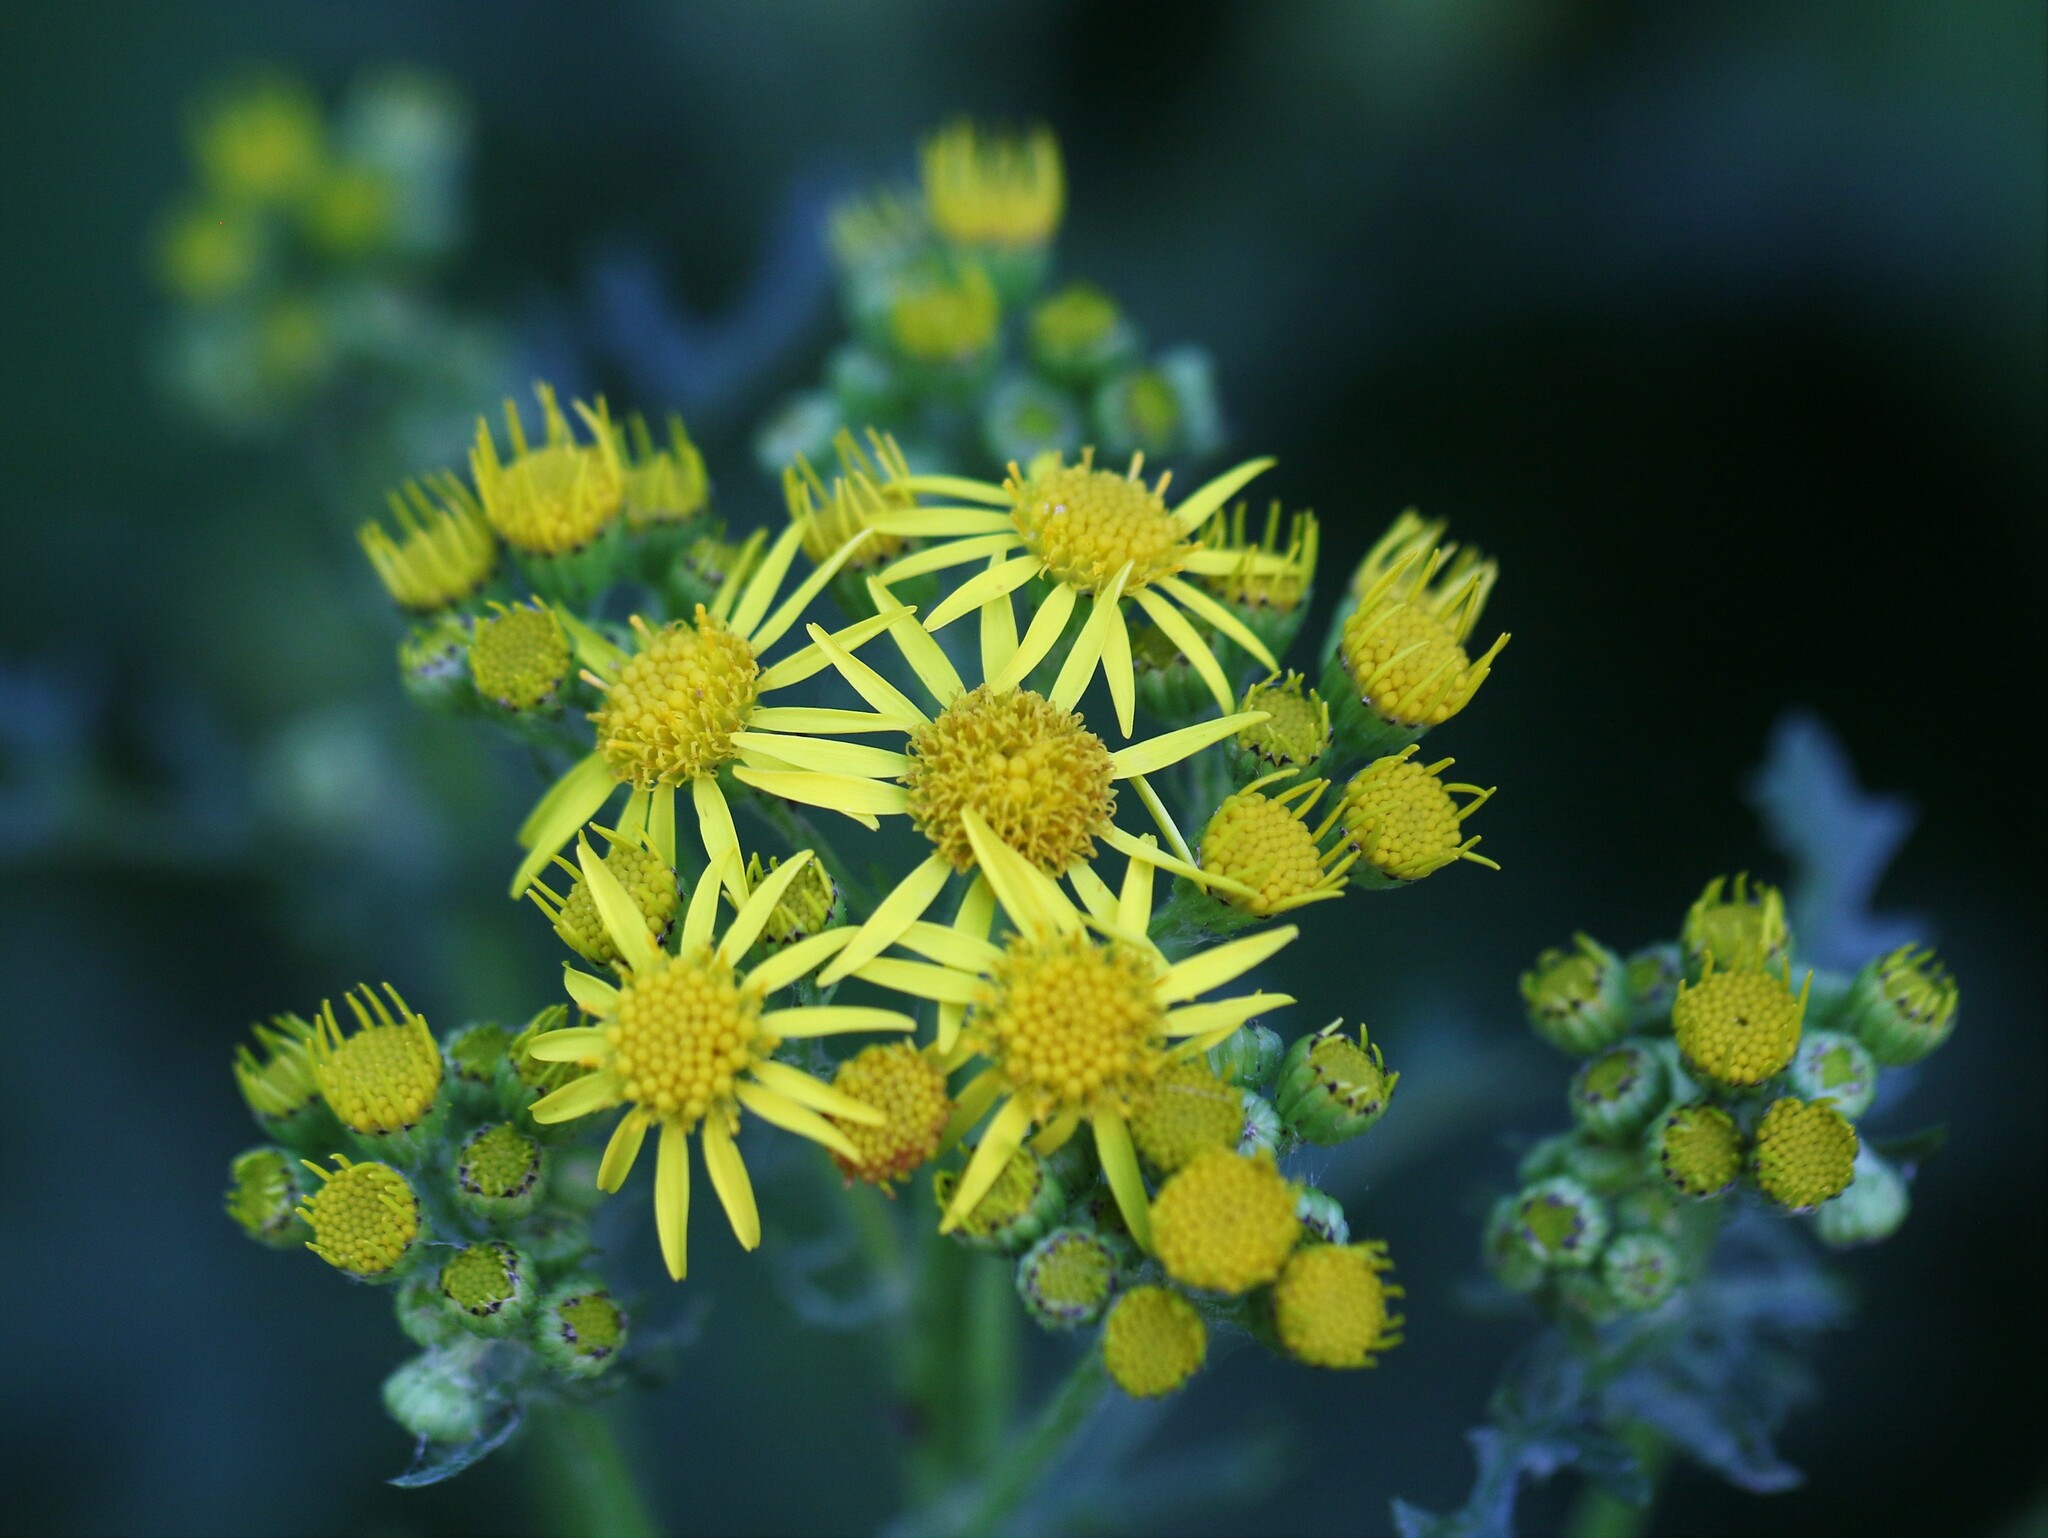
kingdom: Plantae
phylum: Tracheophyta
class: Magnoliopsida
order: Asterales
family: Asteraceae
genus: Jacobaea
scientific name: Jacobaea vulgaris
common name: Stinking willie
